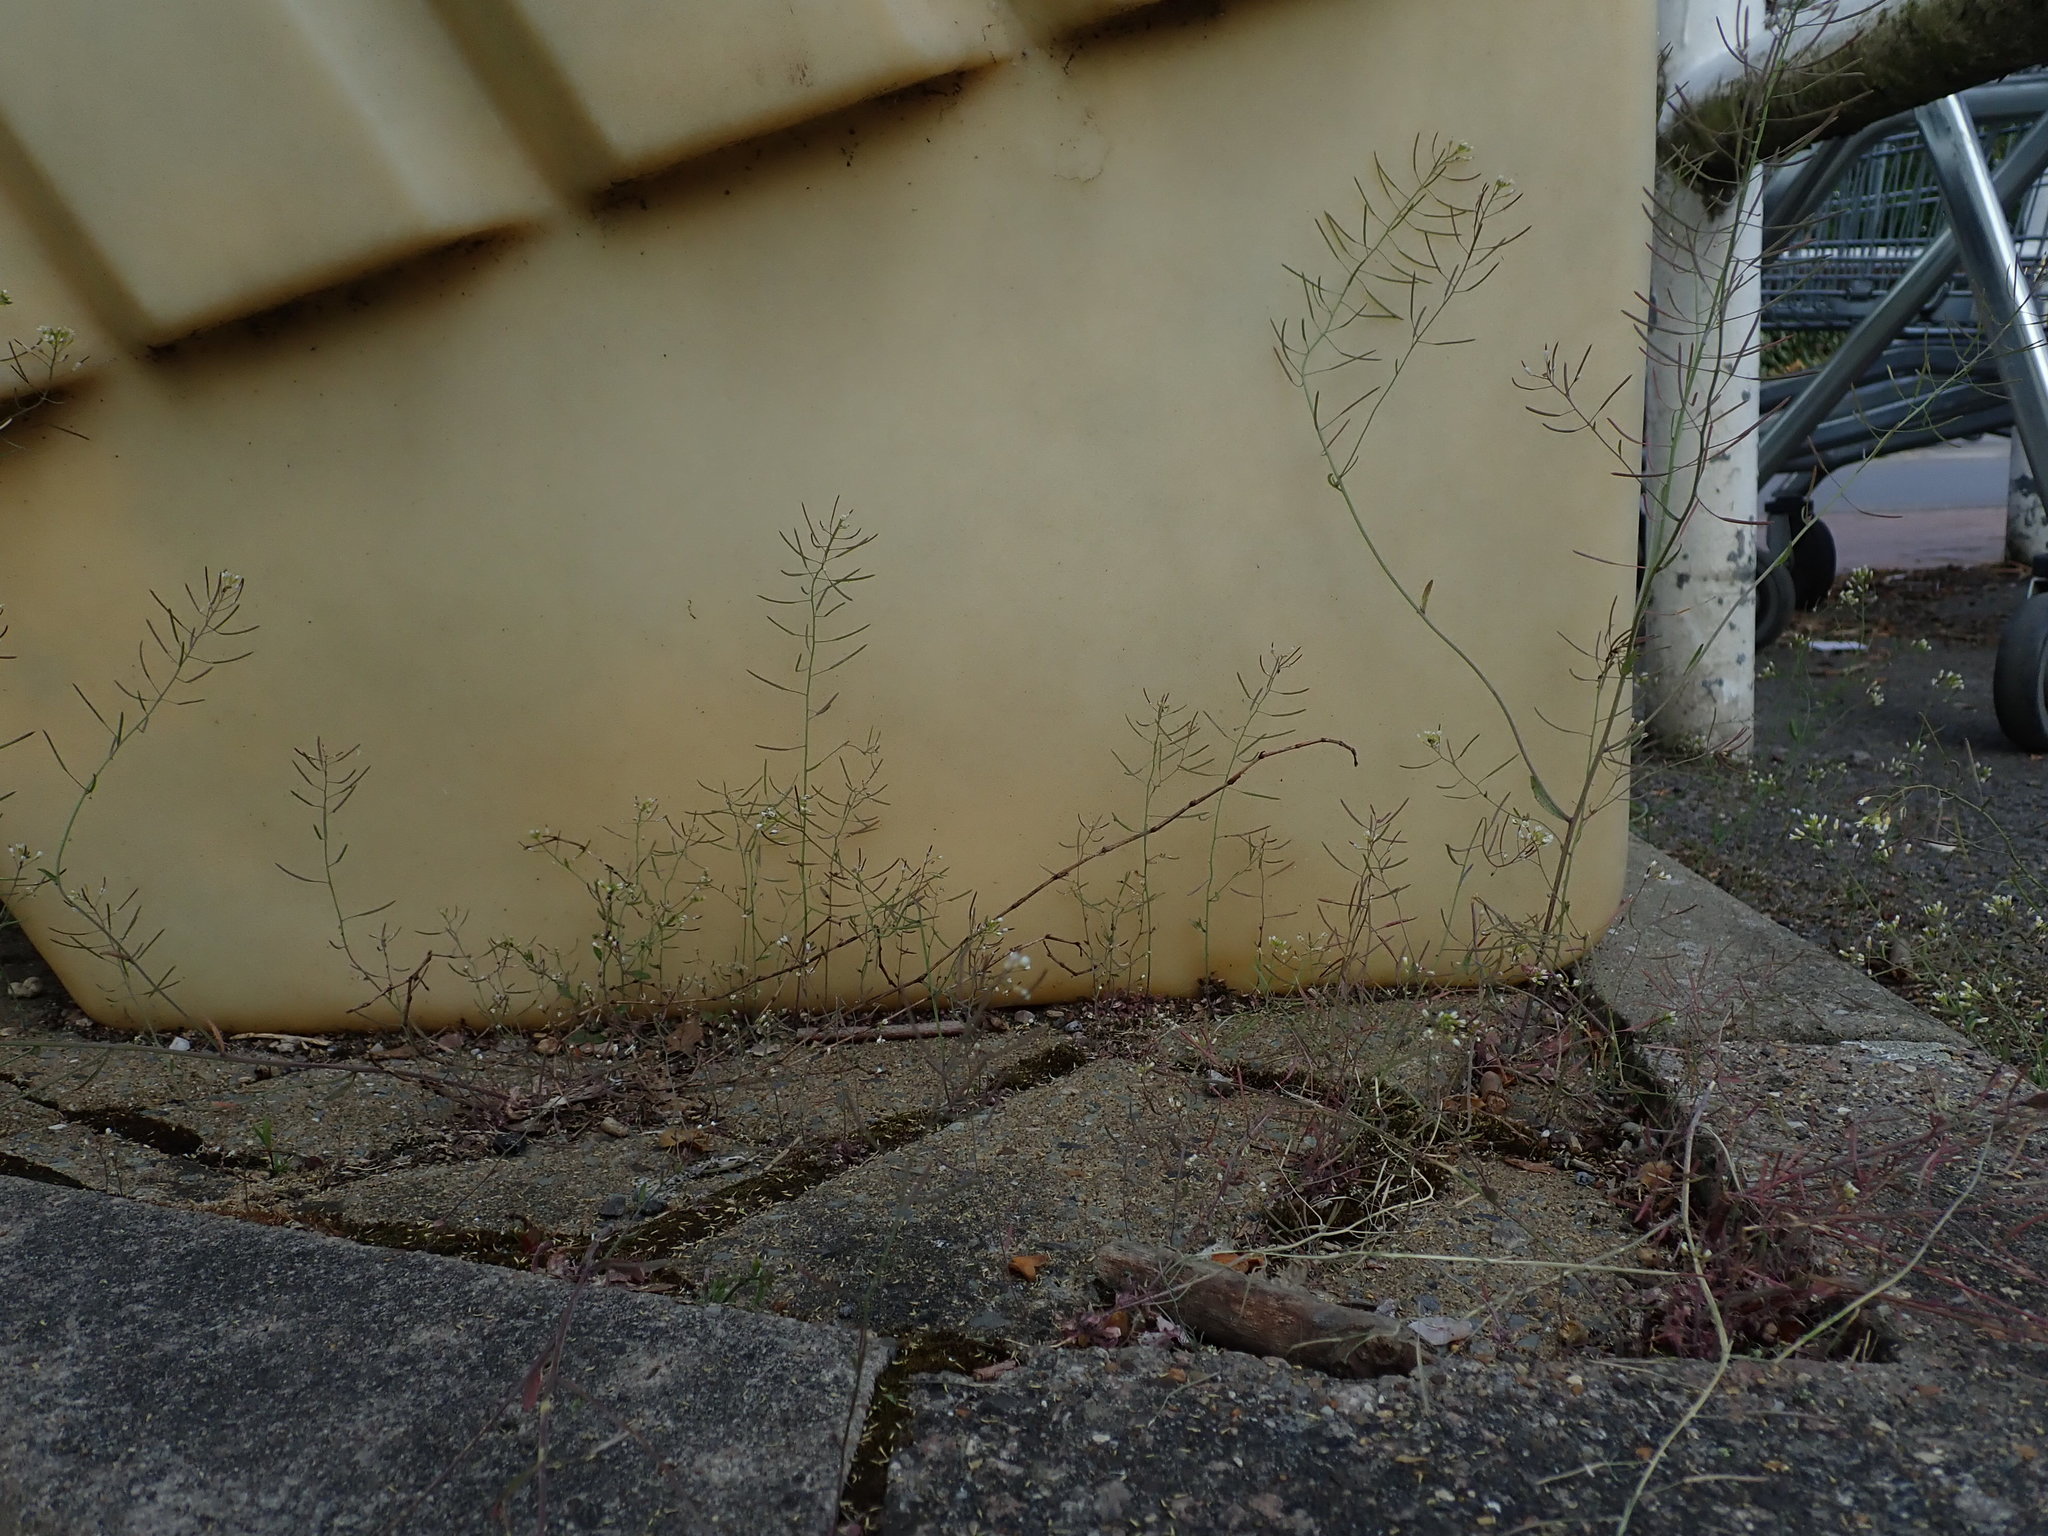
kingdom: Plantae
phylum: Tracheophyta
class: Magnoliopsida
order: Brassicales
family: Brassicaceae
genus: Arabidopsis
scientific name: Arabidopsis thaliana
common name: Thale cress
